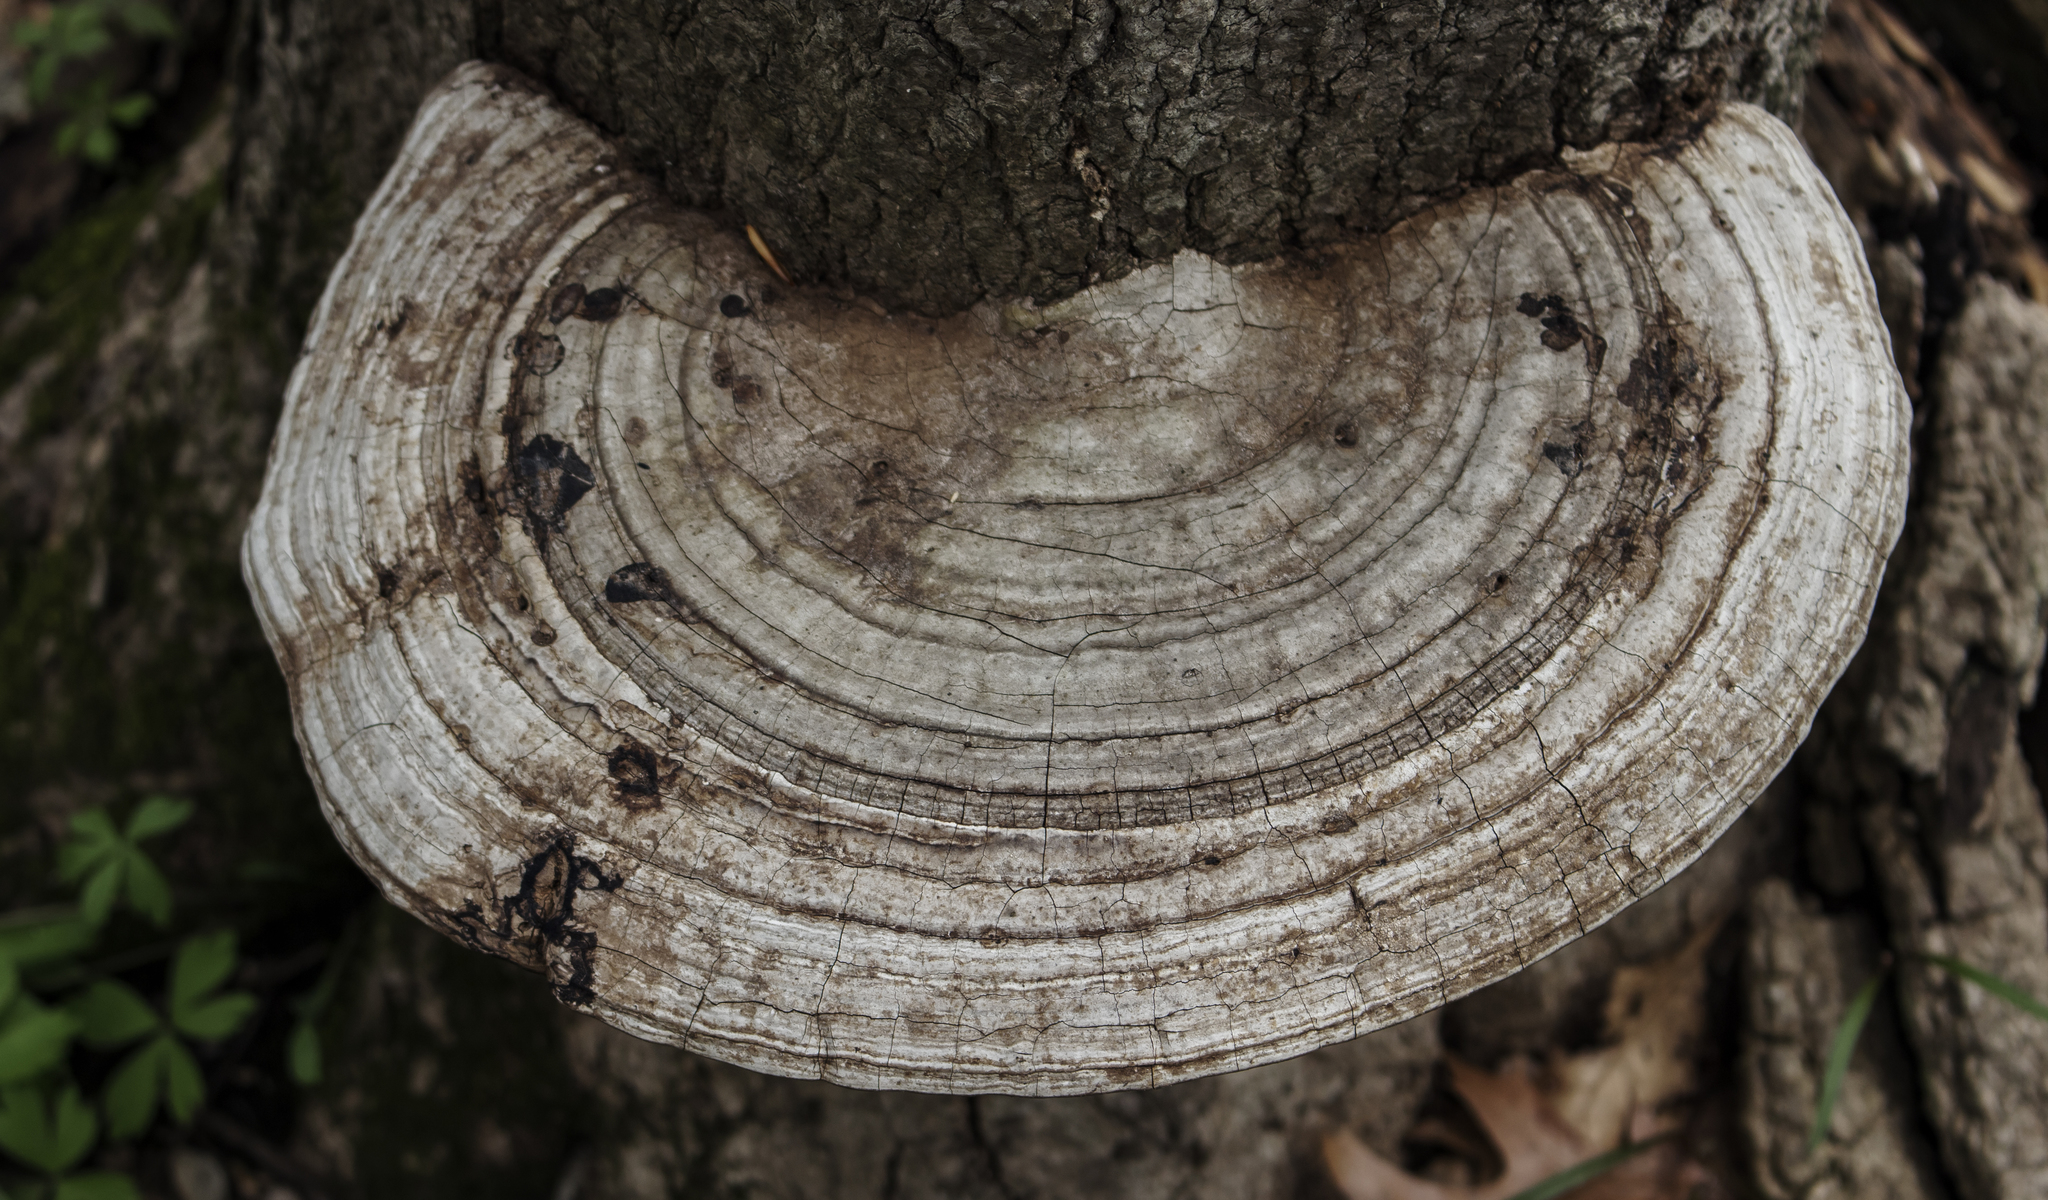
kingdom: Fungi
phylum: Basidiomycota
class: Agaricomycetes
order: Polyporales
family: Polyporaceae
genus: Ganoderma
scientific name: Ganoderma applanatum
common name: Artist's bracket
